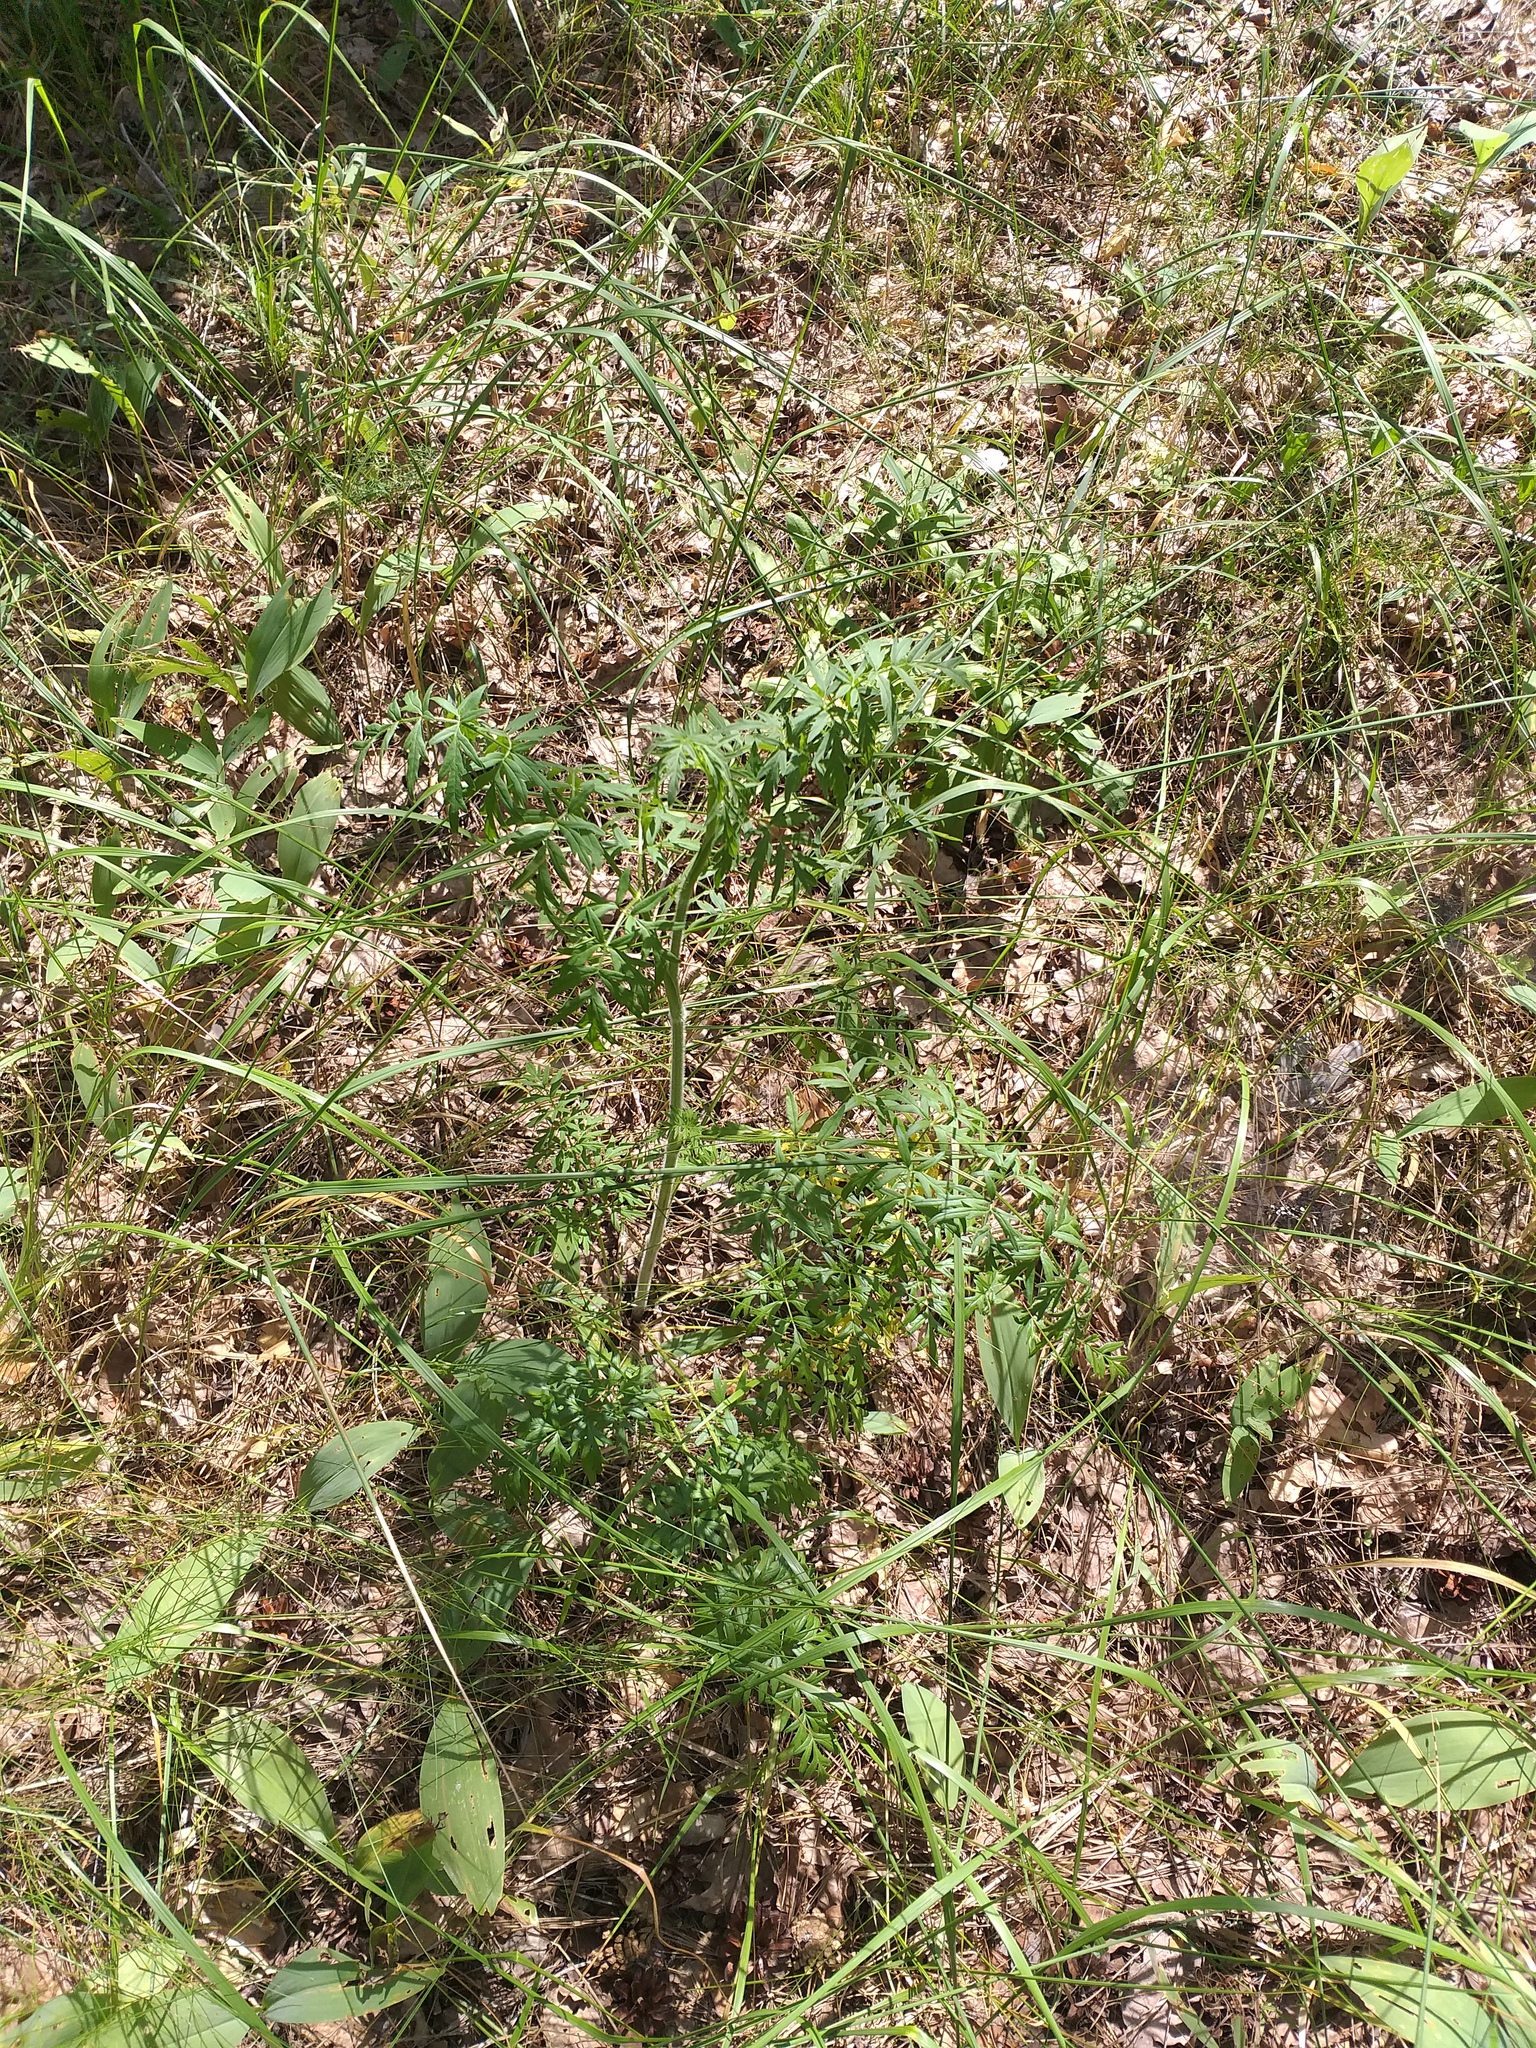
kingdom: Plantae
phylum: Tracheophyta
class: Magnoliopsida
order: Apiales
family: Apiaceae
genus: Silphiodaucus
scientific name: Silphiodaucus prutenicus
